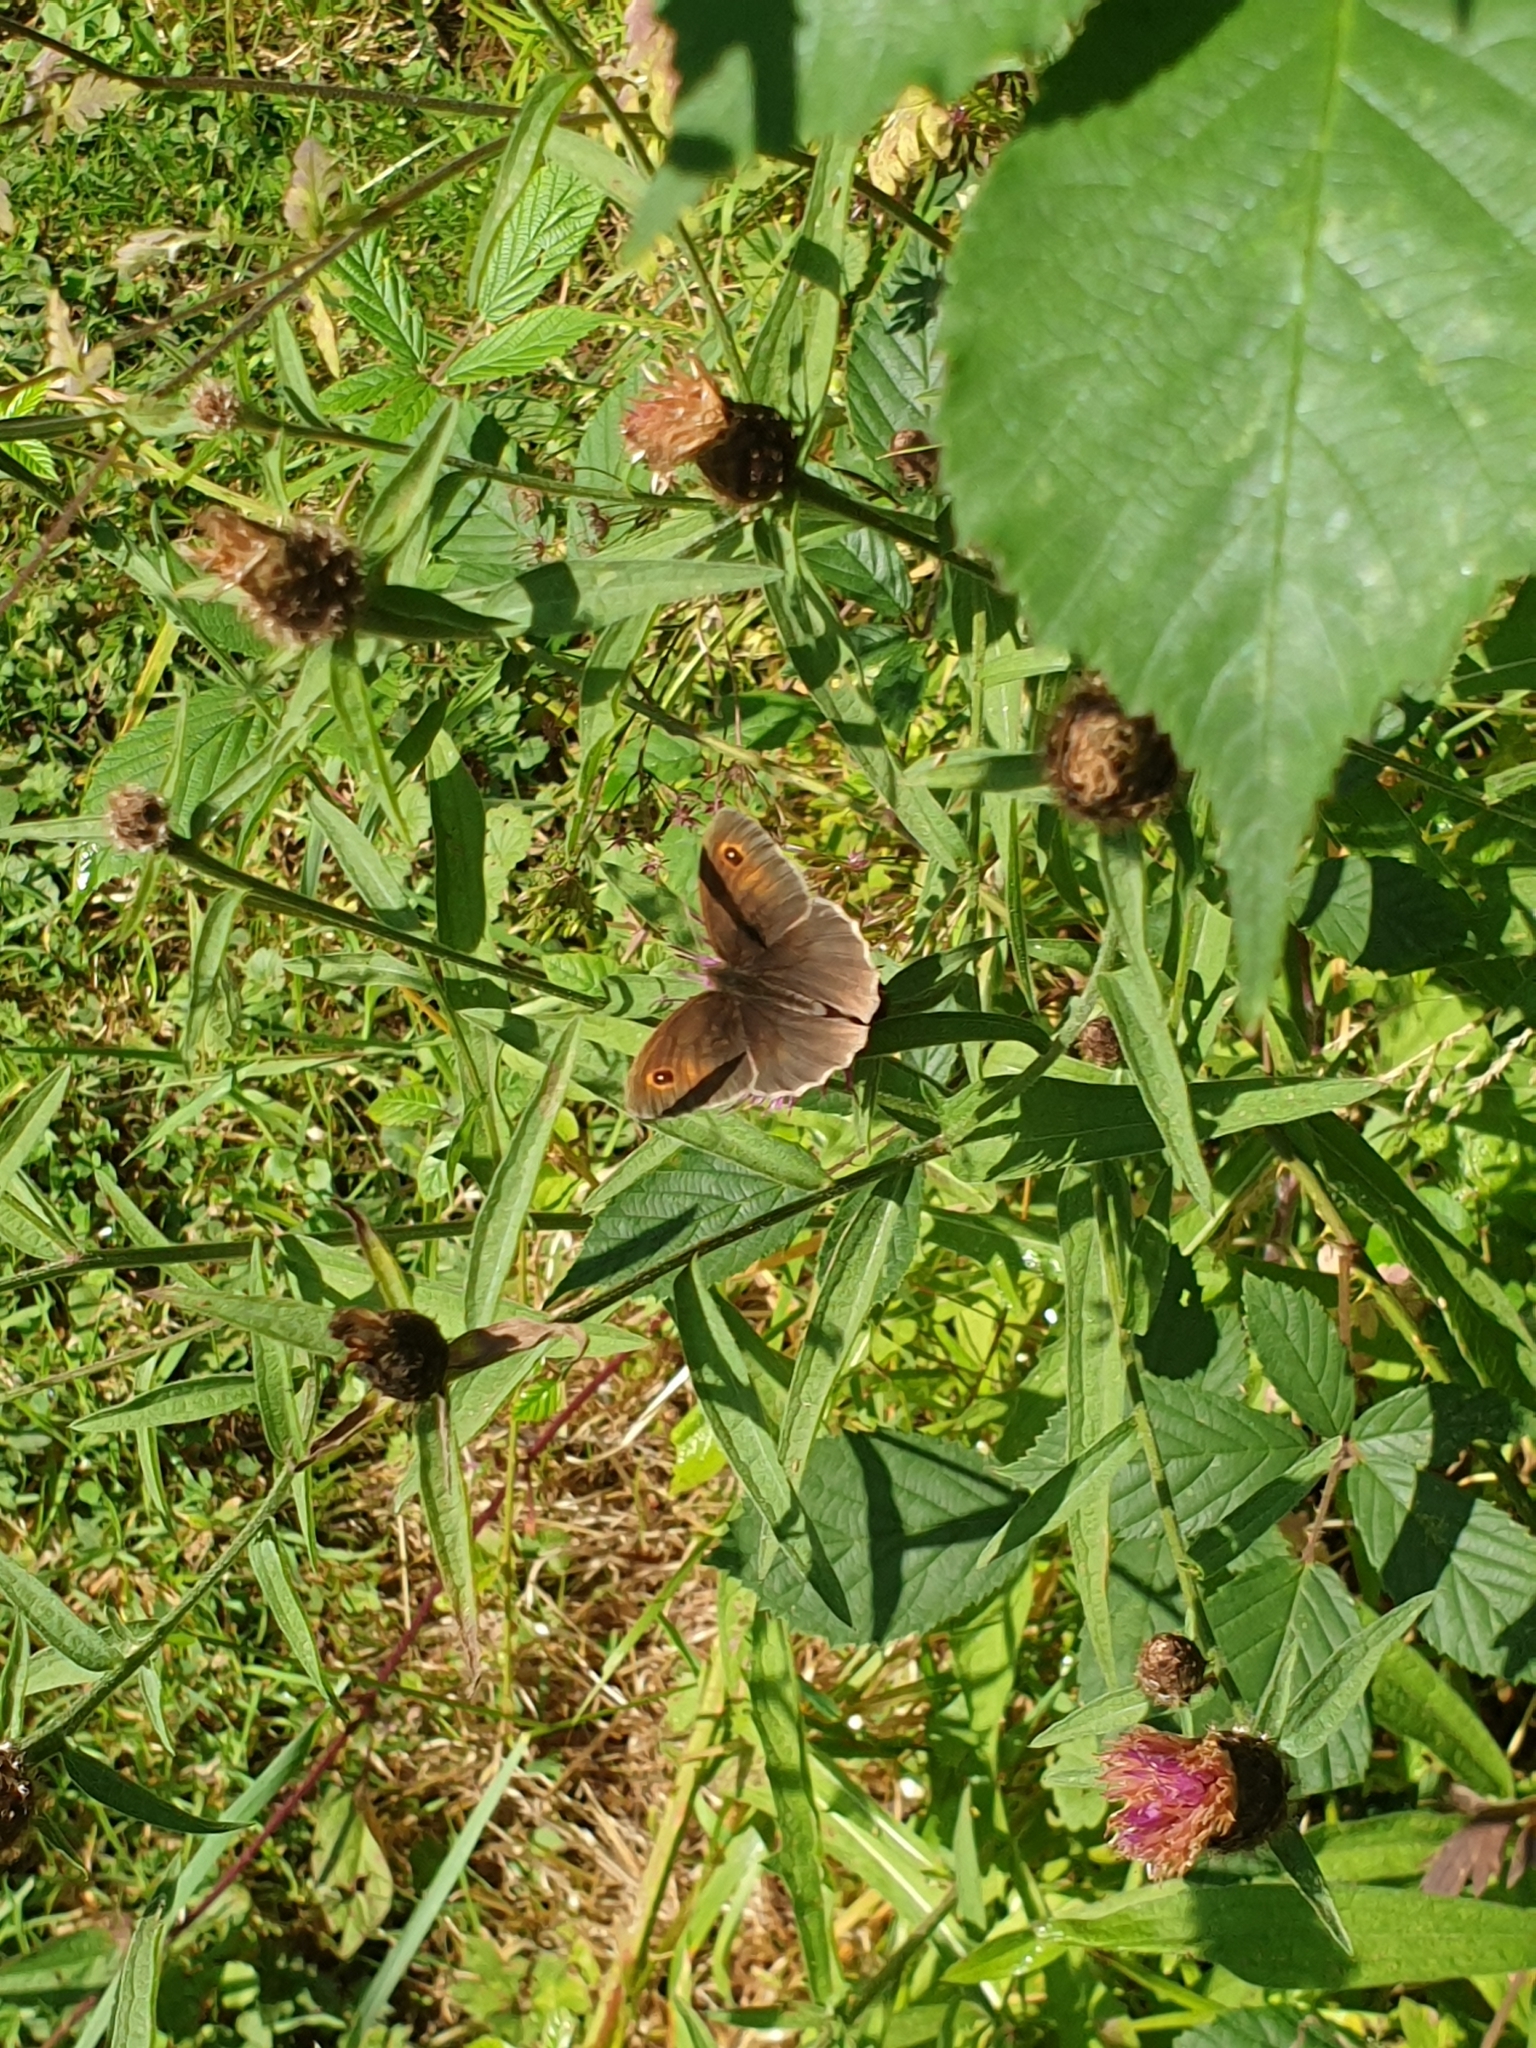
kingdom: Animalia
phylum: Arthropoda
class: Insecta
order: Lepidoptera
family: Nymphalidae
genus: Maniola
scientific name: Maniola jurtina
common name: Meadow brown
